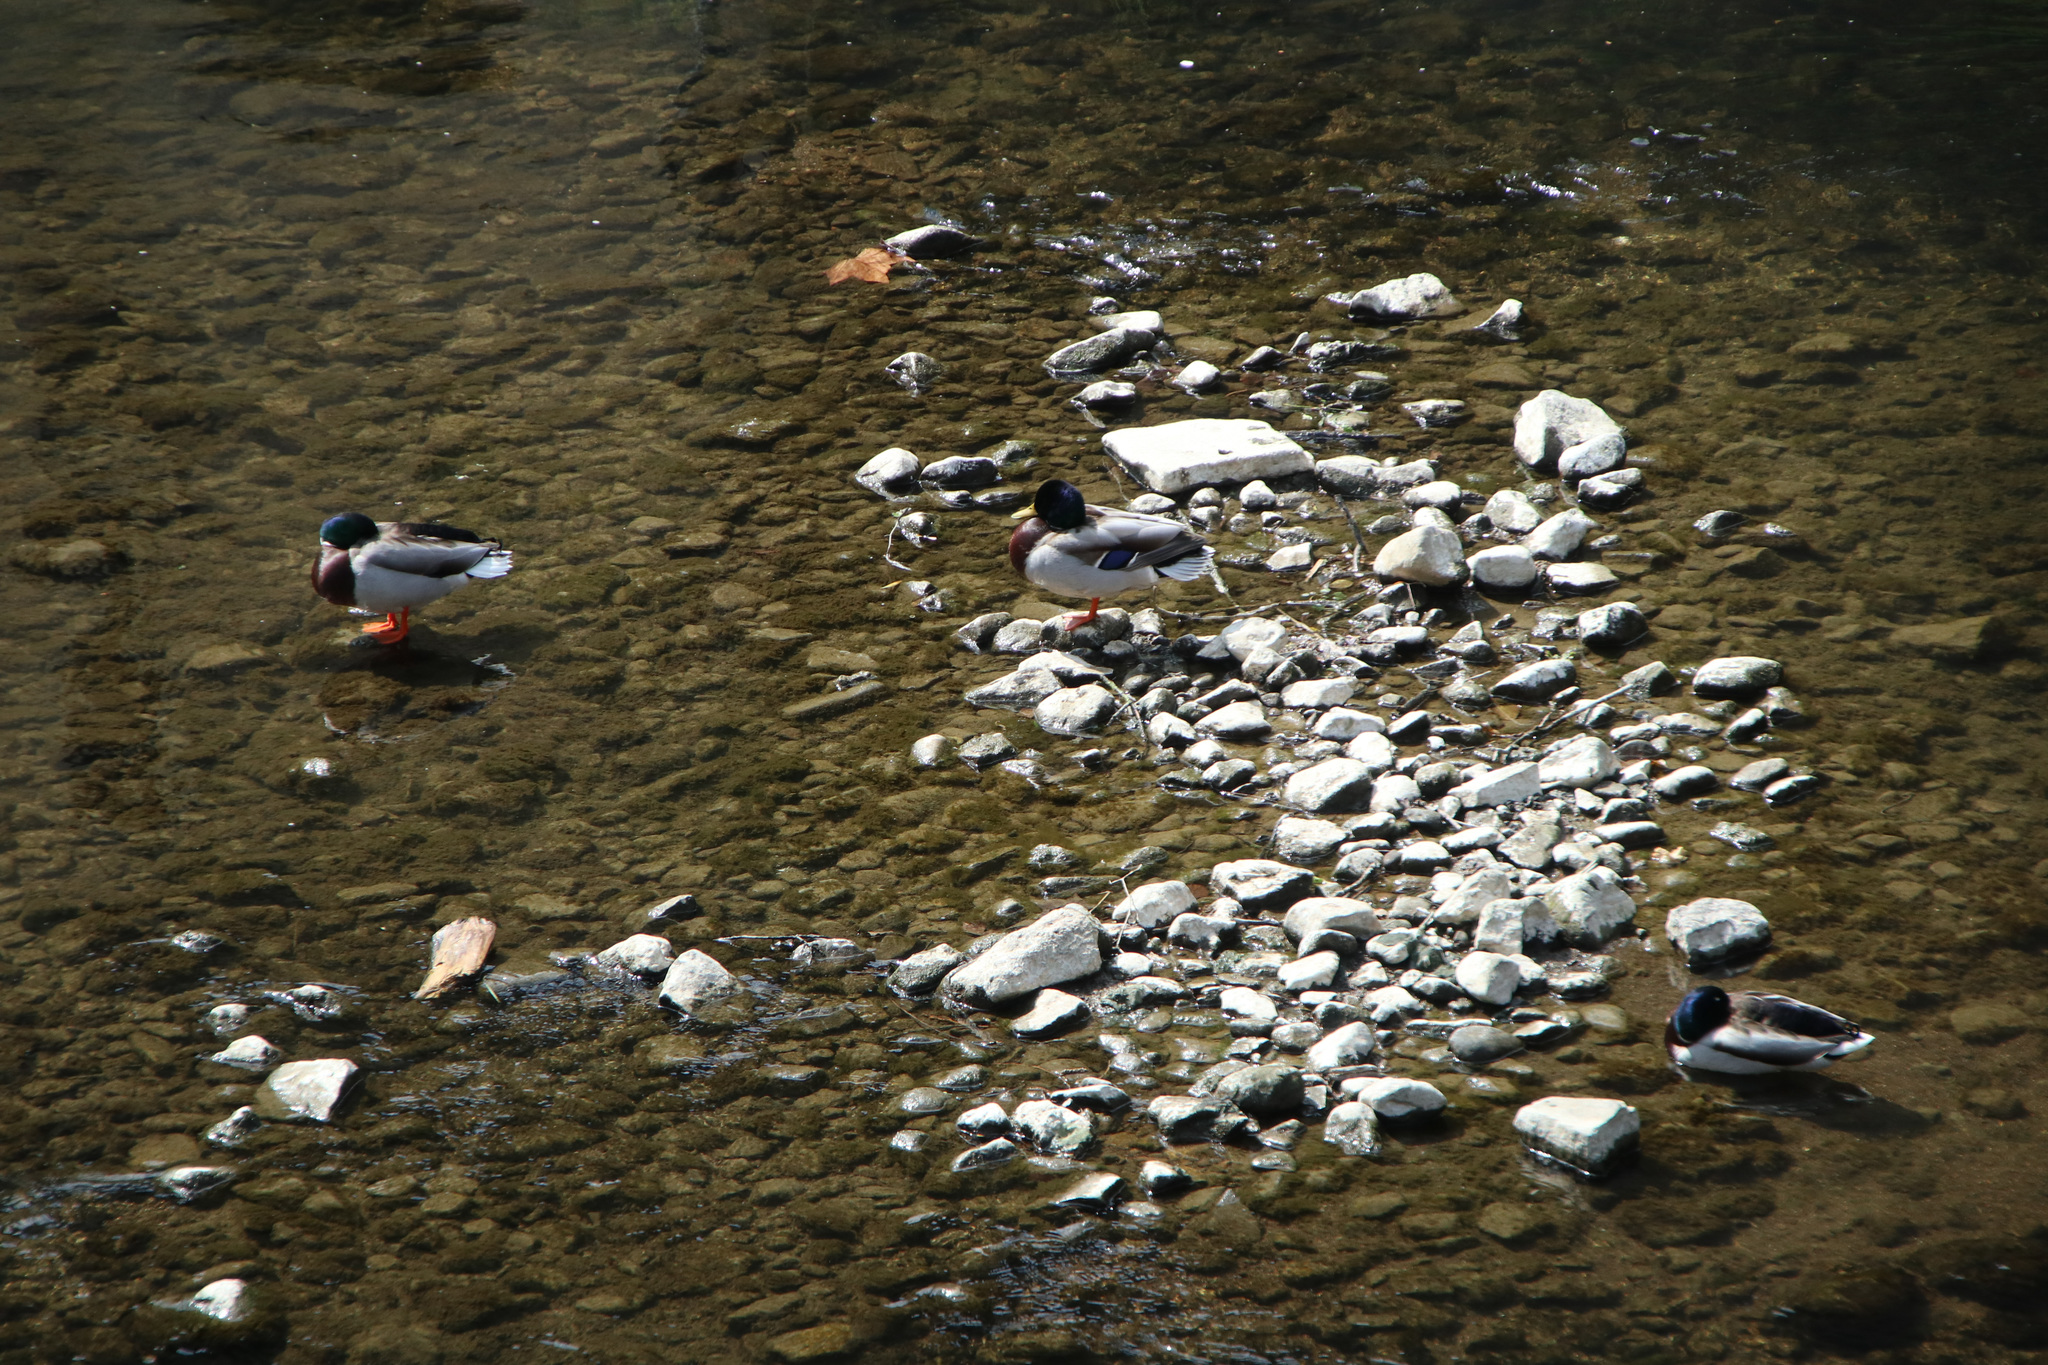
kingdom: Animalia
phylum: Chordata
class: Aves
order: Anseriformes
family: Anatidae
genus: Anas
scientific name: Anas platyrhynchos
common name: Mallard
